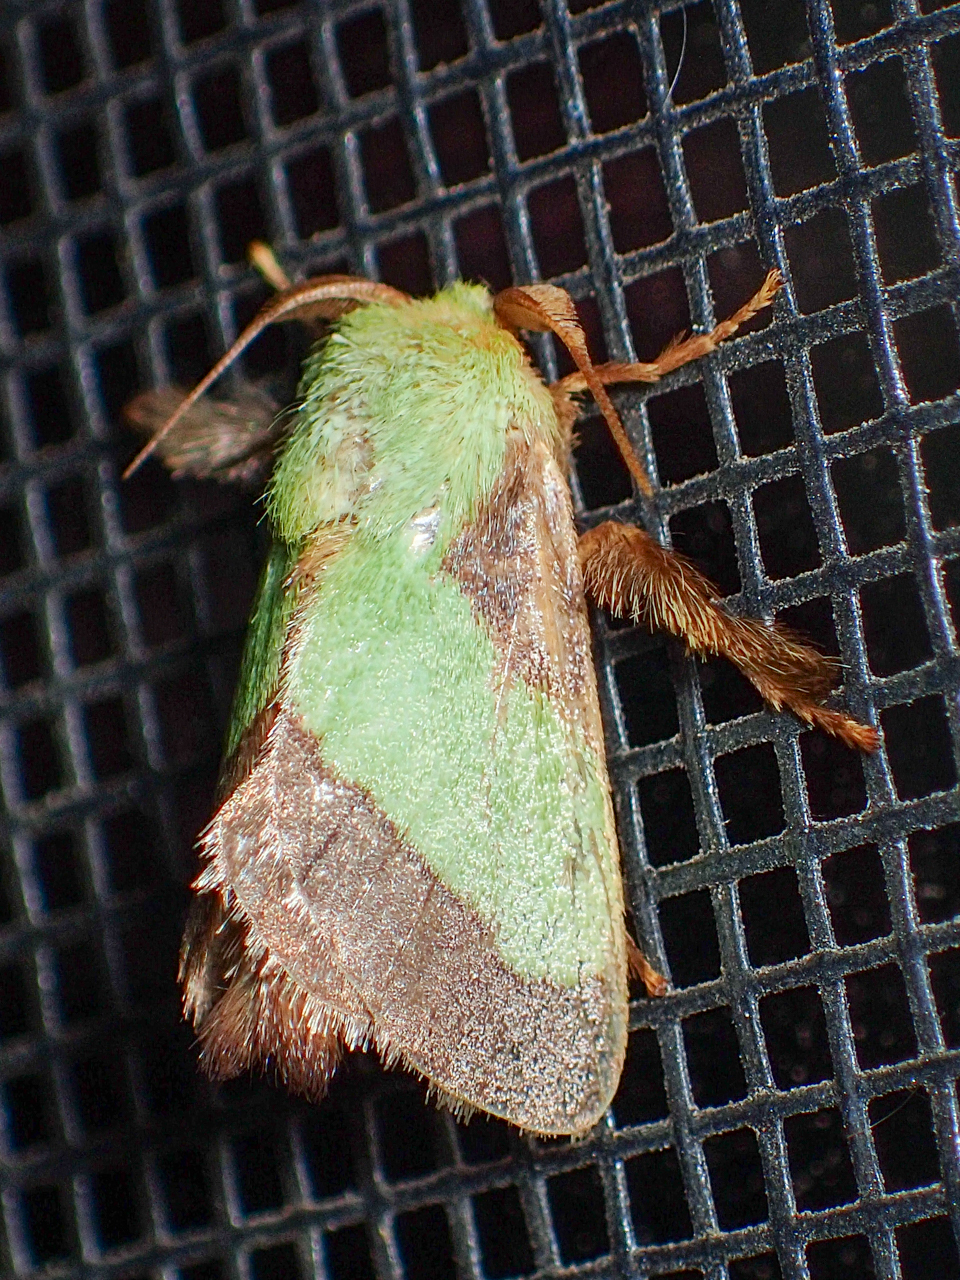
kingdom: Animalia
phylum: Arthropoda
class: Insecta
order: Lepidoptera
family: Limacodidae
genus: Parasa
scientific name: Parasa chloris
